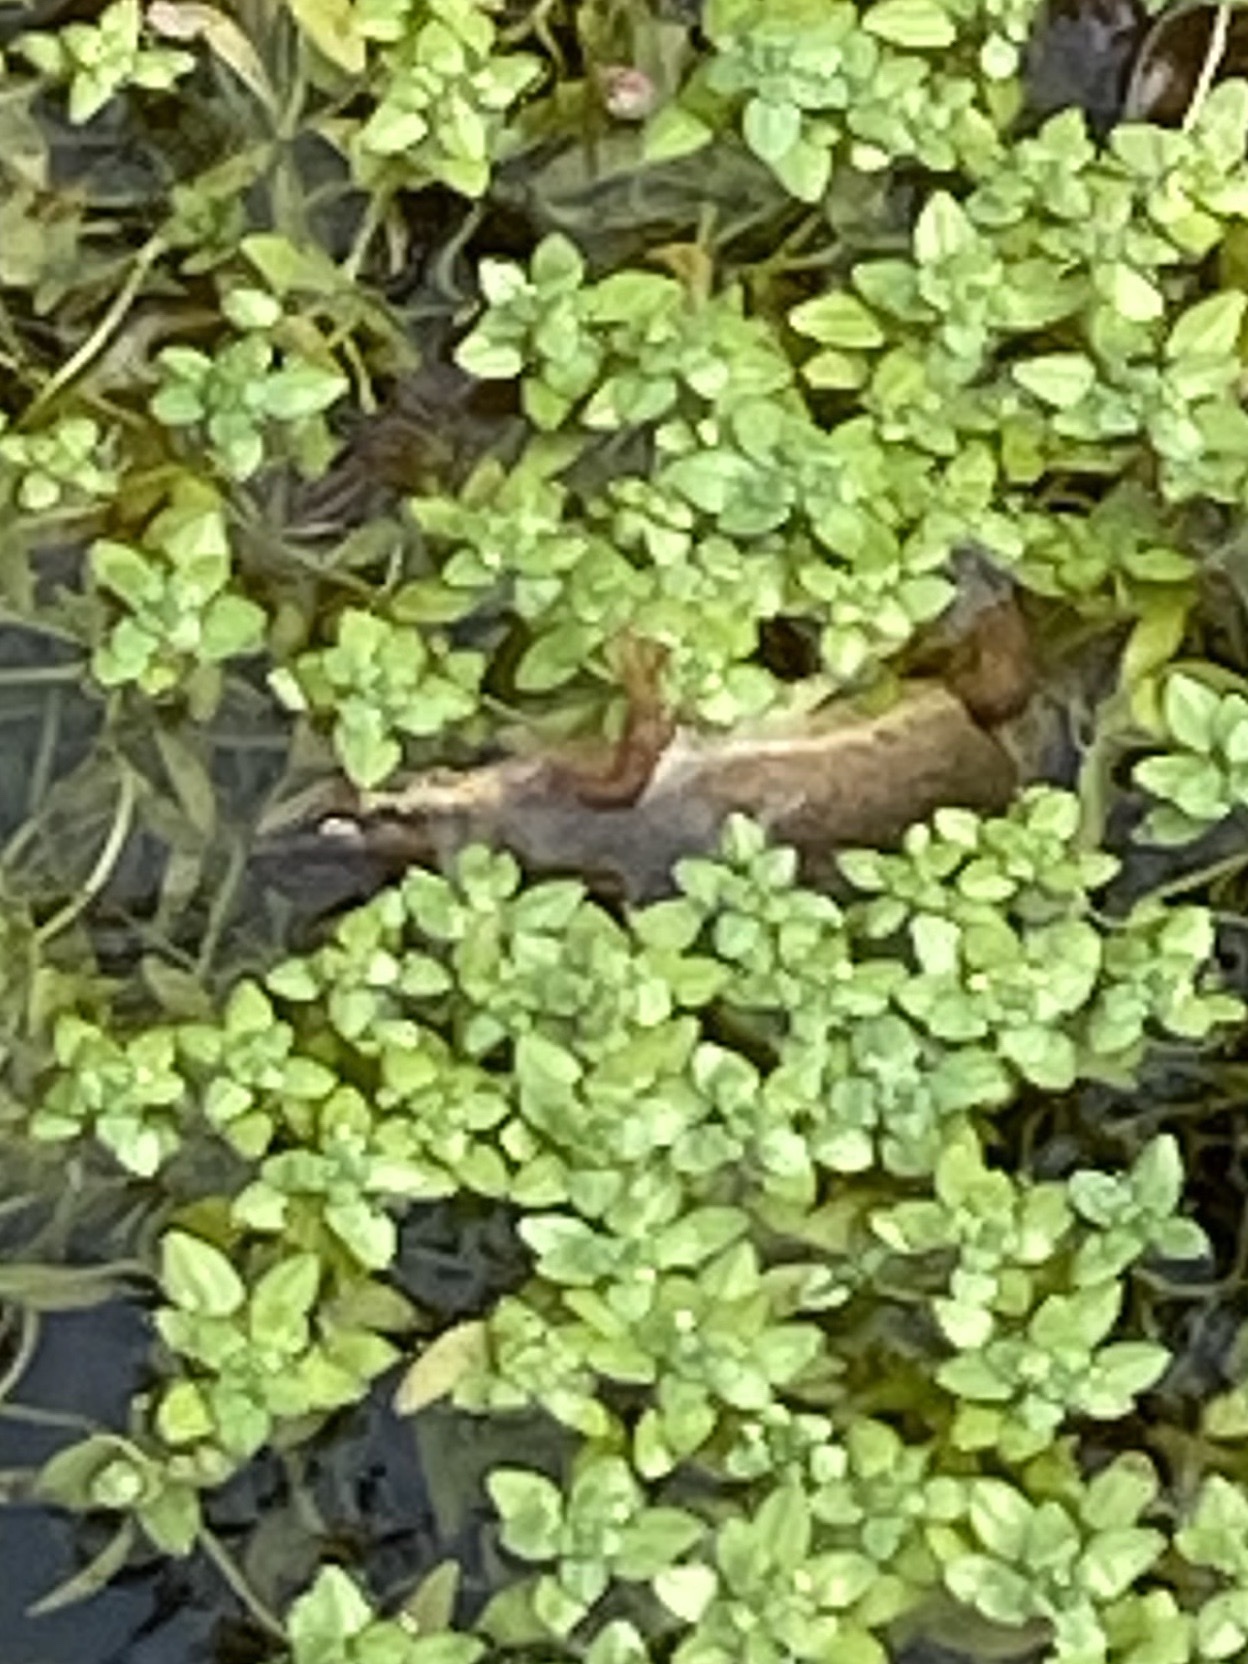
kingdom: Animalia
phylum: Chordata
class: Amphibia
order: Caudata
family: Salamandridae
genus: Lissotriton
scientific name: Lissotriton vulgaris
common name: Smooth newt
